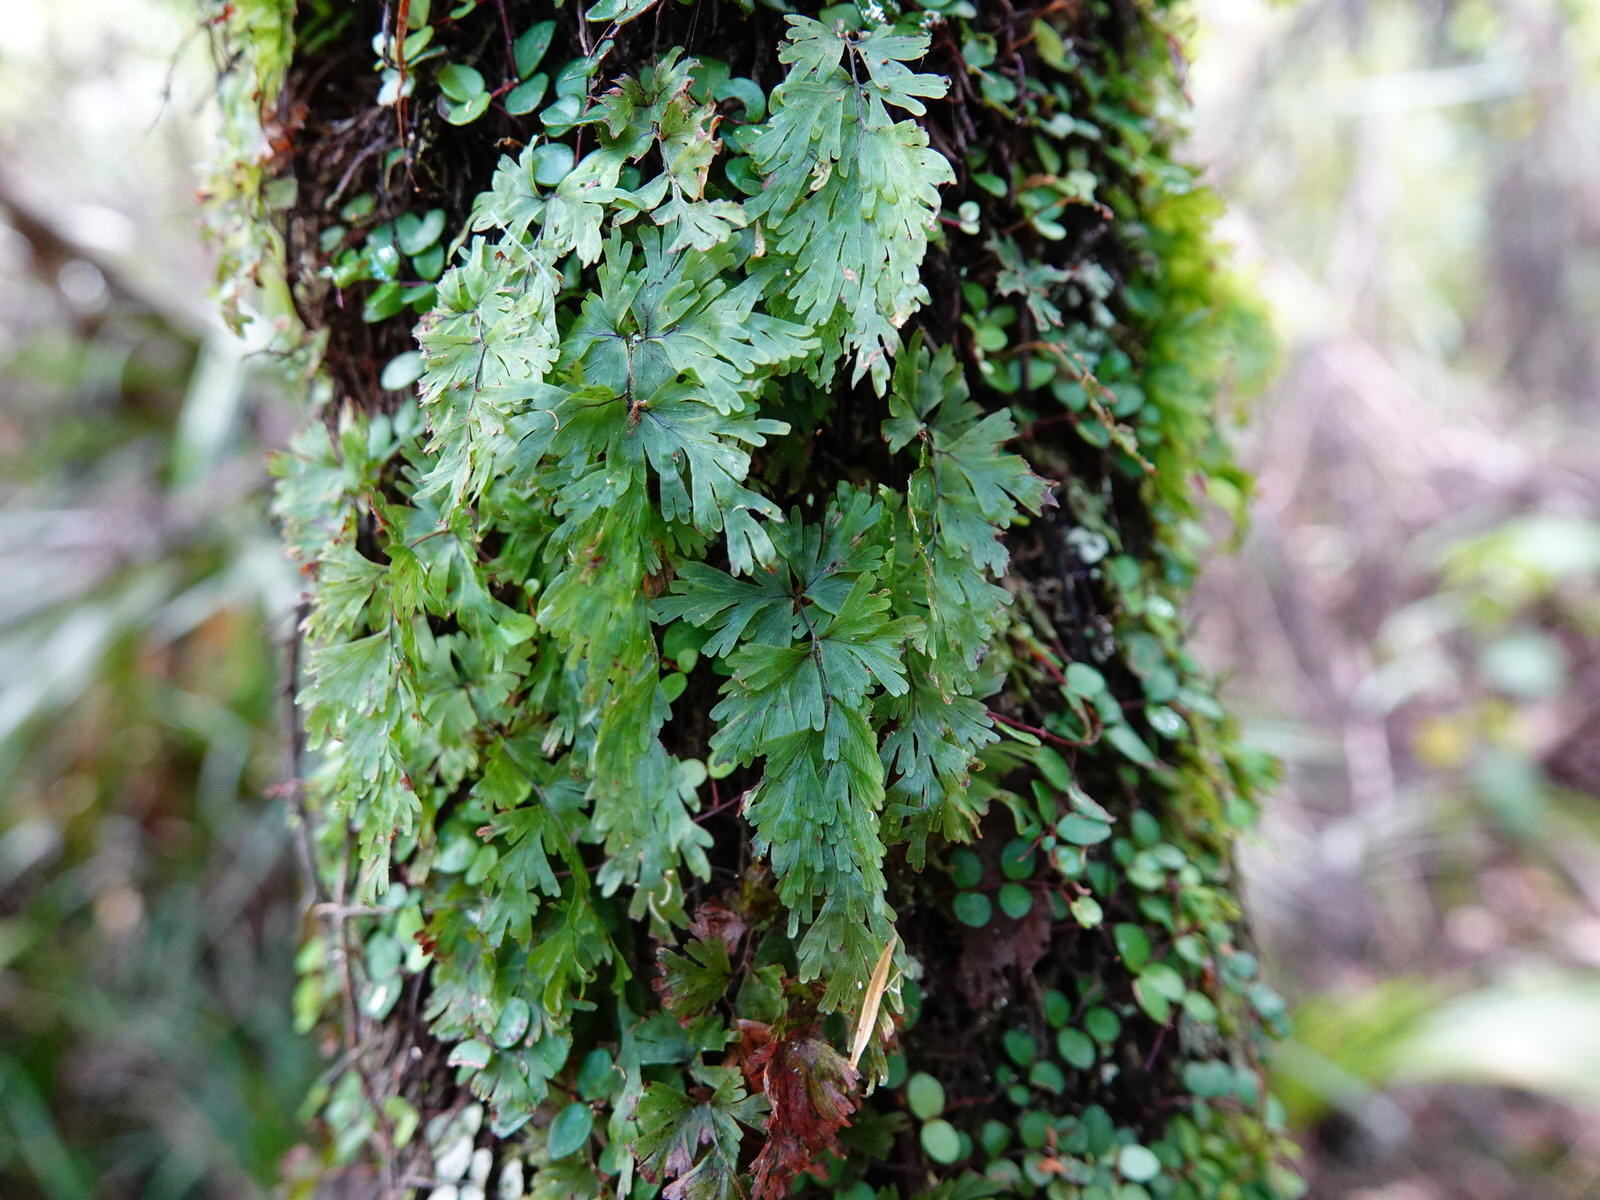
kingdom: Plantae
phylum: Tracheophyta
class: Polypodiopsida
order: Hymenophyllales
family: Hymenophyllaceae
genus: Hymenophyllum
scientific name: Hymenophyllum flabellatum
